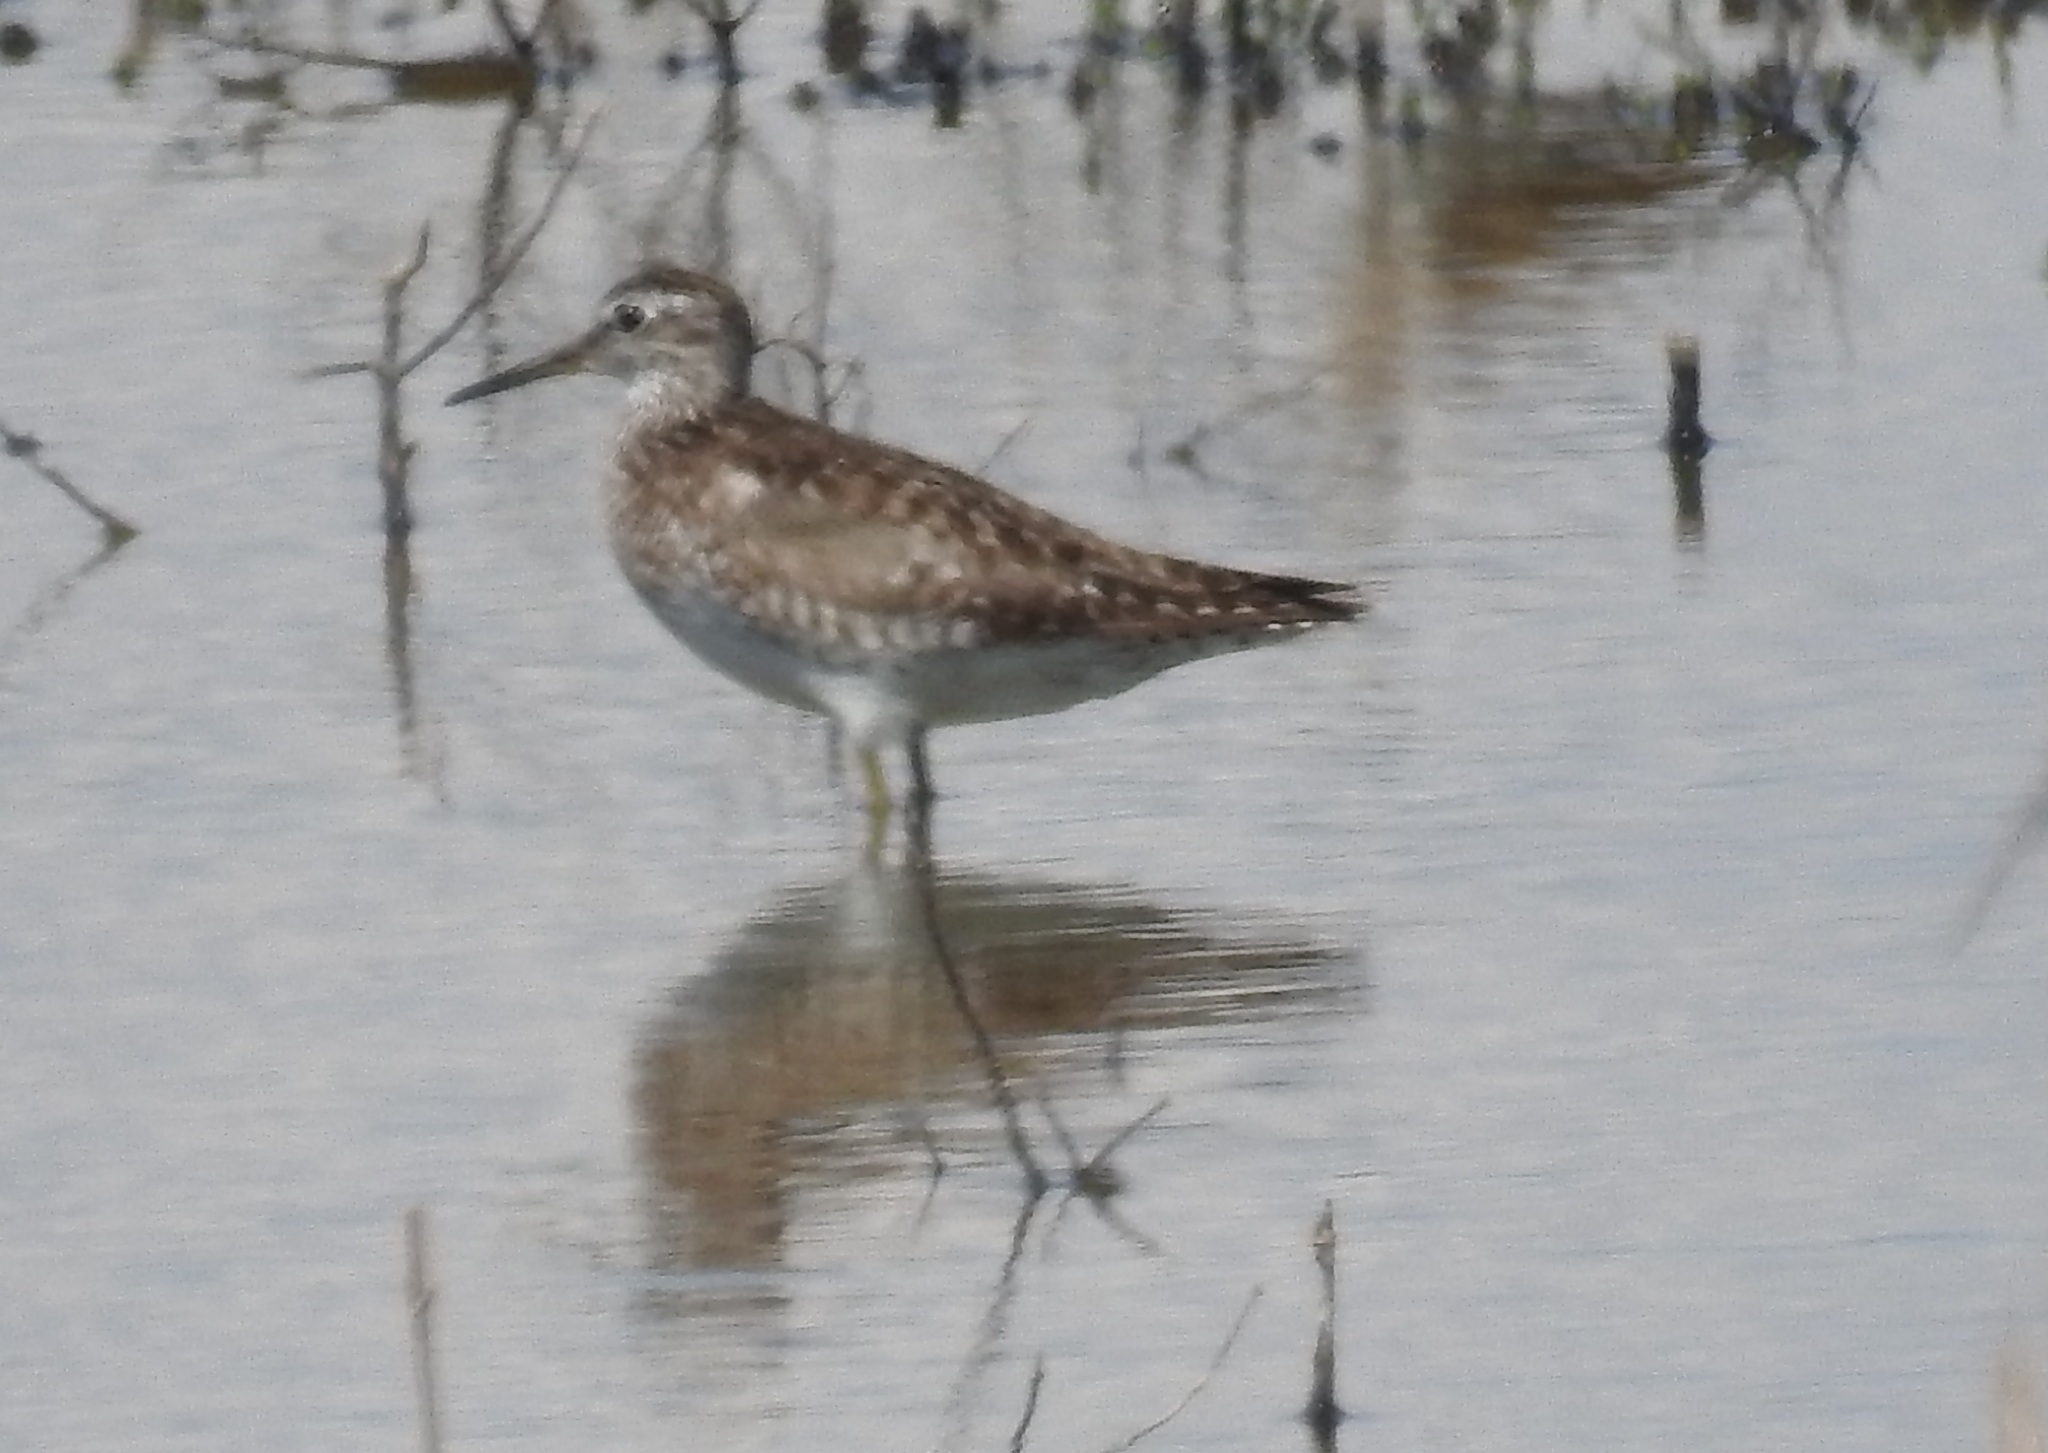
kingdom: Animalia
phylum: Chordata
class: Aves
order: Charadriiformes
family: Scolopacidae
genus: Tringa
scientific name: Tringa glareola
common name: Wood sandpiper
